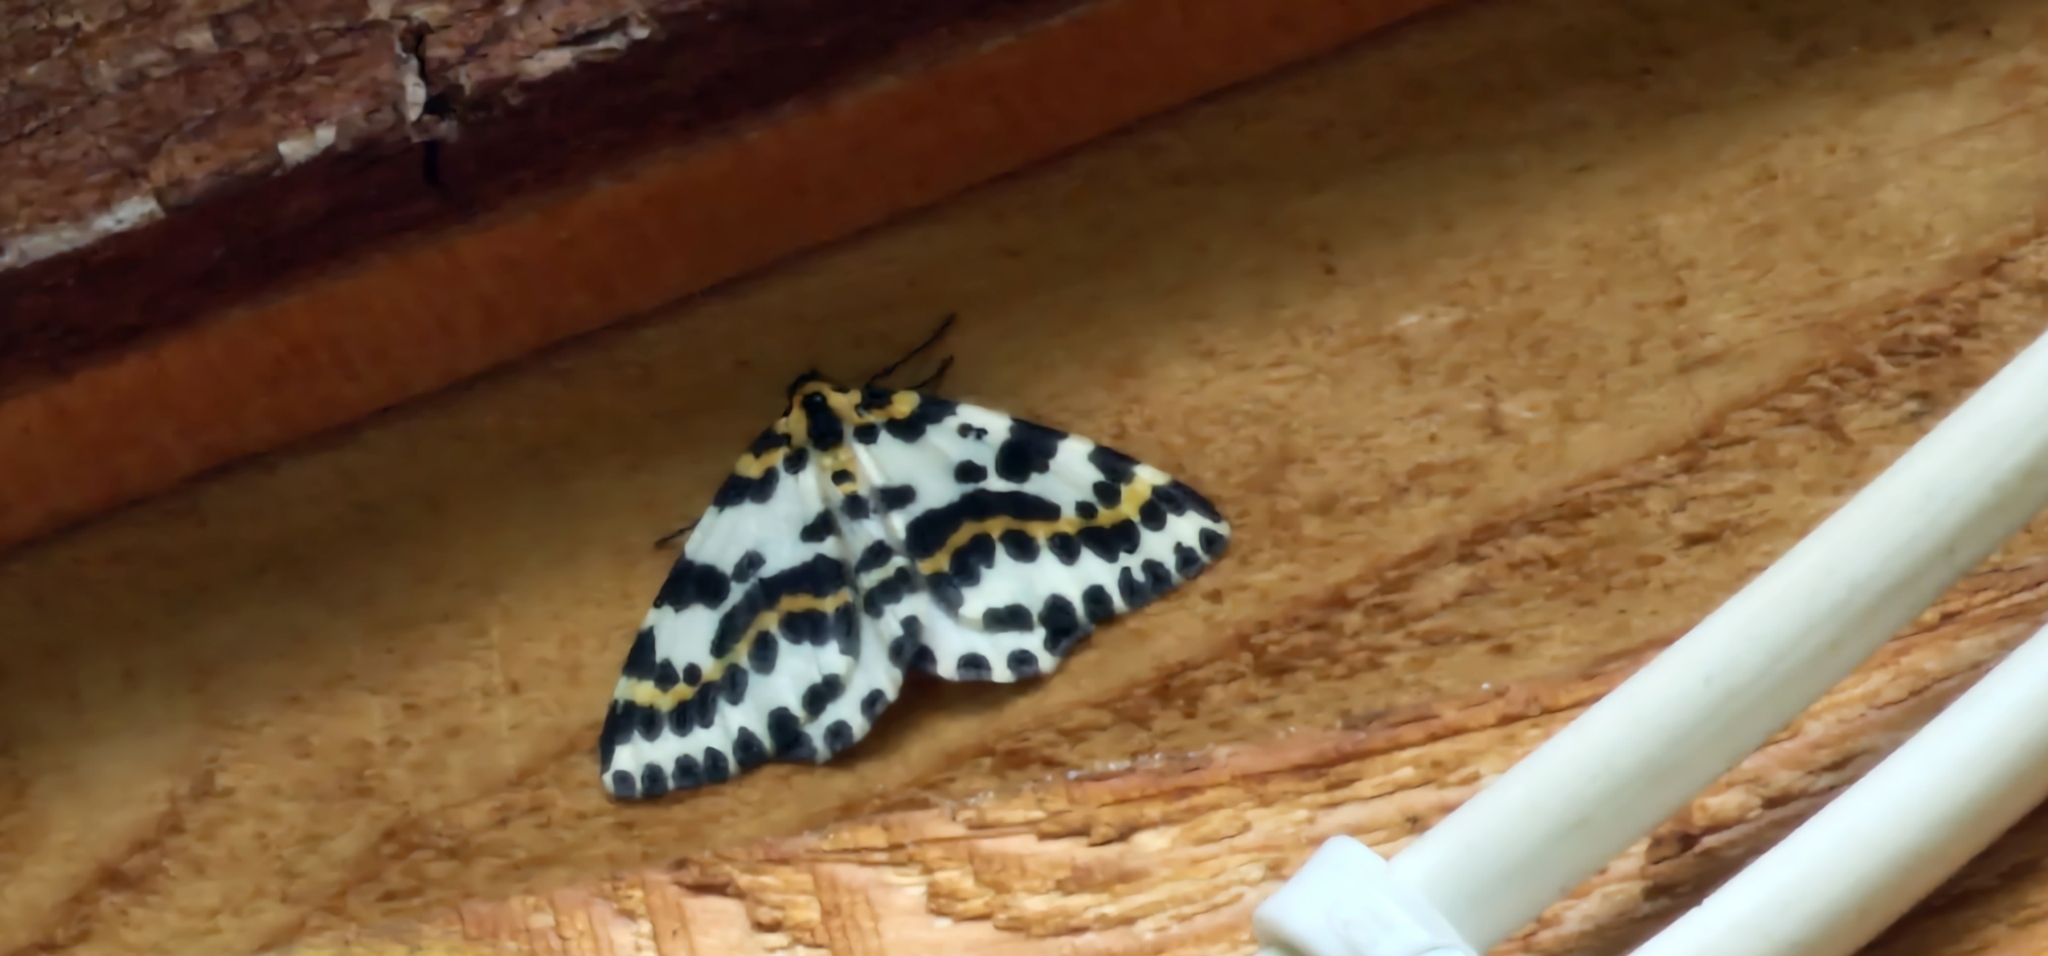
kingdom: Animalia
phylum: Arthropoda
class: Insecta
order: Lepidoptera
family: Geometridae
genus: Abraxas
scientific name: Abraxas grossulariata
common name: Magpie
